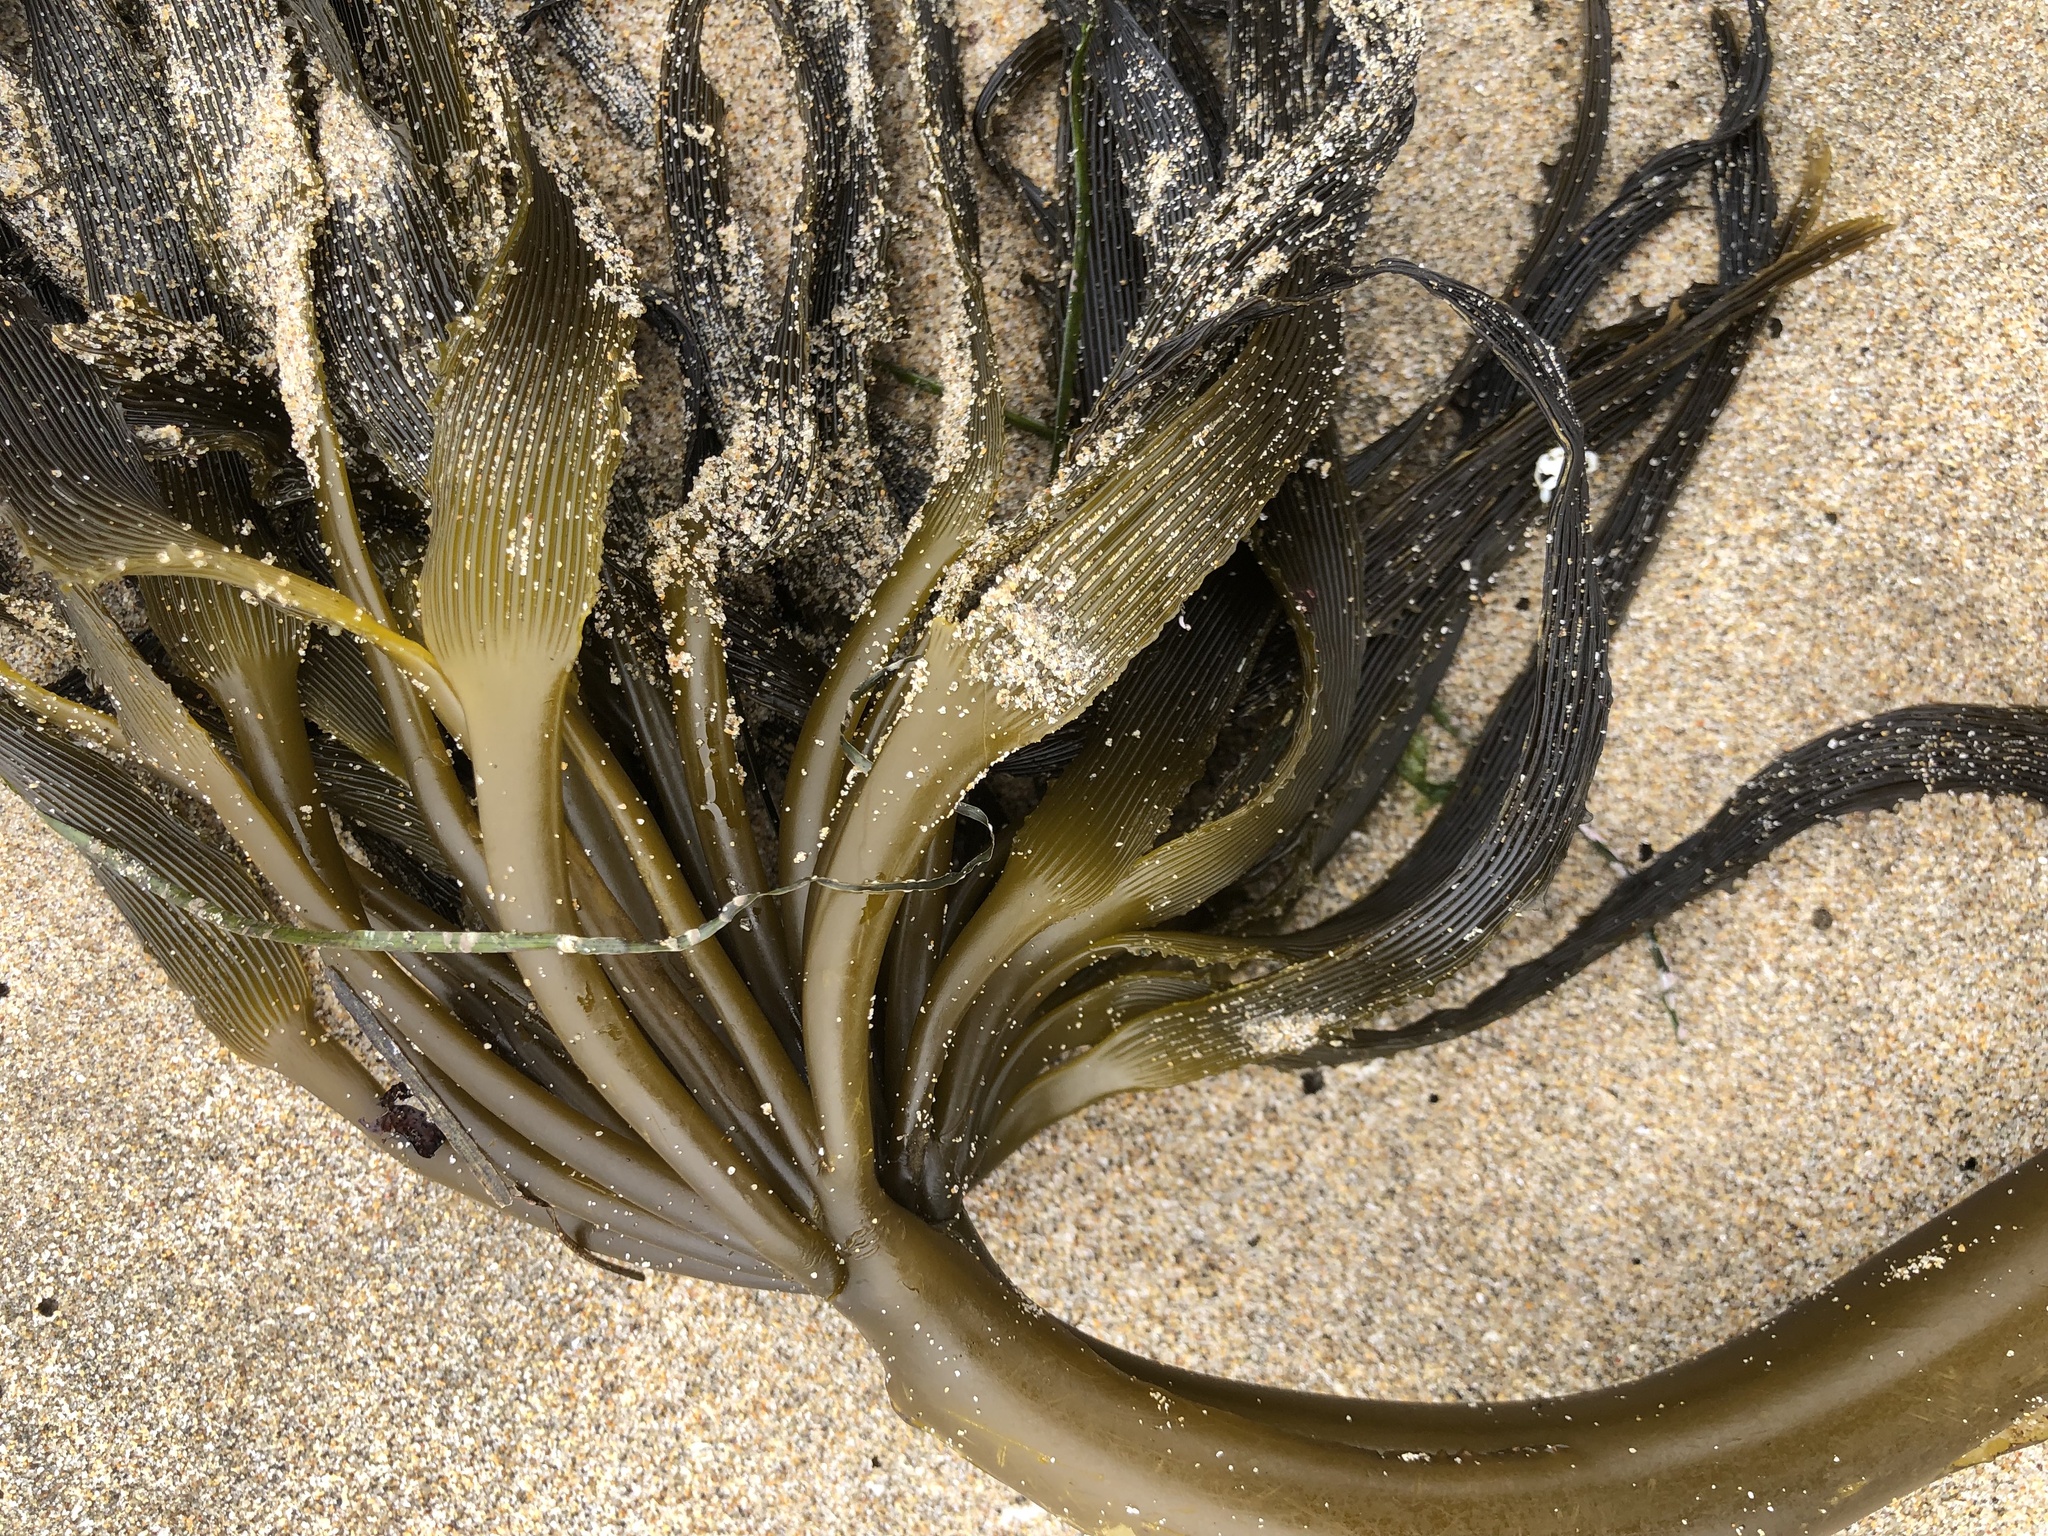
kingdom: Chromista
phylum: Ochrophyta
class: Phaeophyceae
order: Laminariales
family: Laminariaceae
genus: Postelsia
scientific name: Postelsia palmiformis
